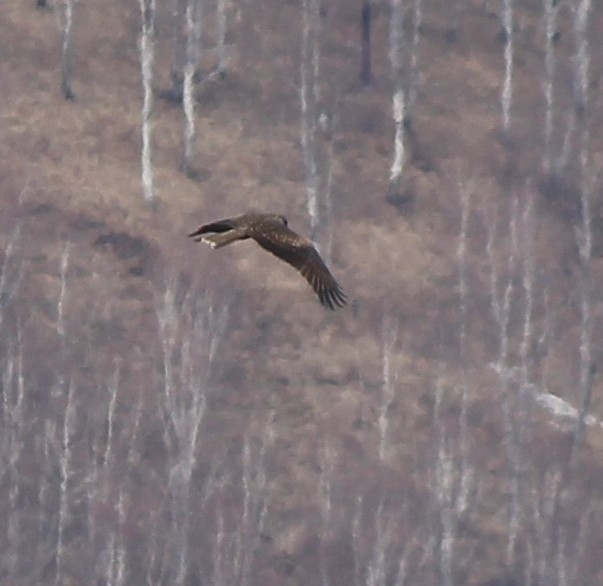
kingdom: Animalia
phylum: Chordata
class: Aves
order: Accipitriformes
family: Accipitridae
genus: Milvus
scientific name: Milvus migrans
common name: Black kite
